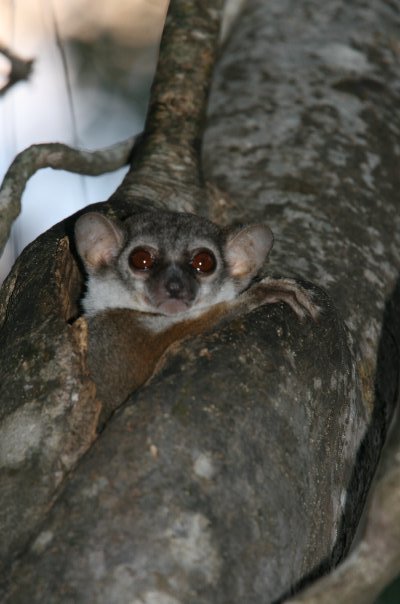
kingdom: Animalia
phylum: Chordata
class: Mammalia
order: Primates
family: Lepilemuridae
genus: Lepilemur
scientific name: Lepilemur edwardsi
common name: Milne-edwards's sportive lemur
